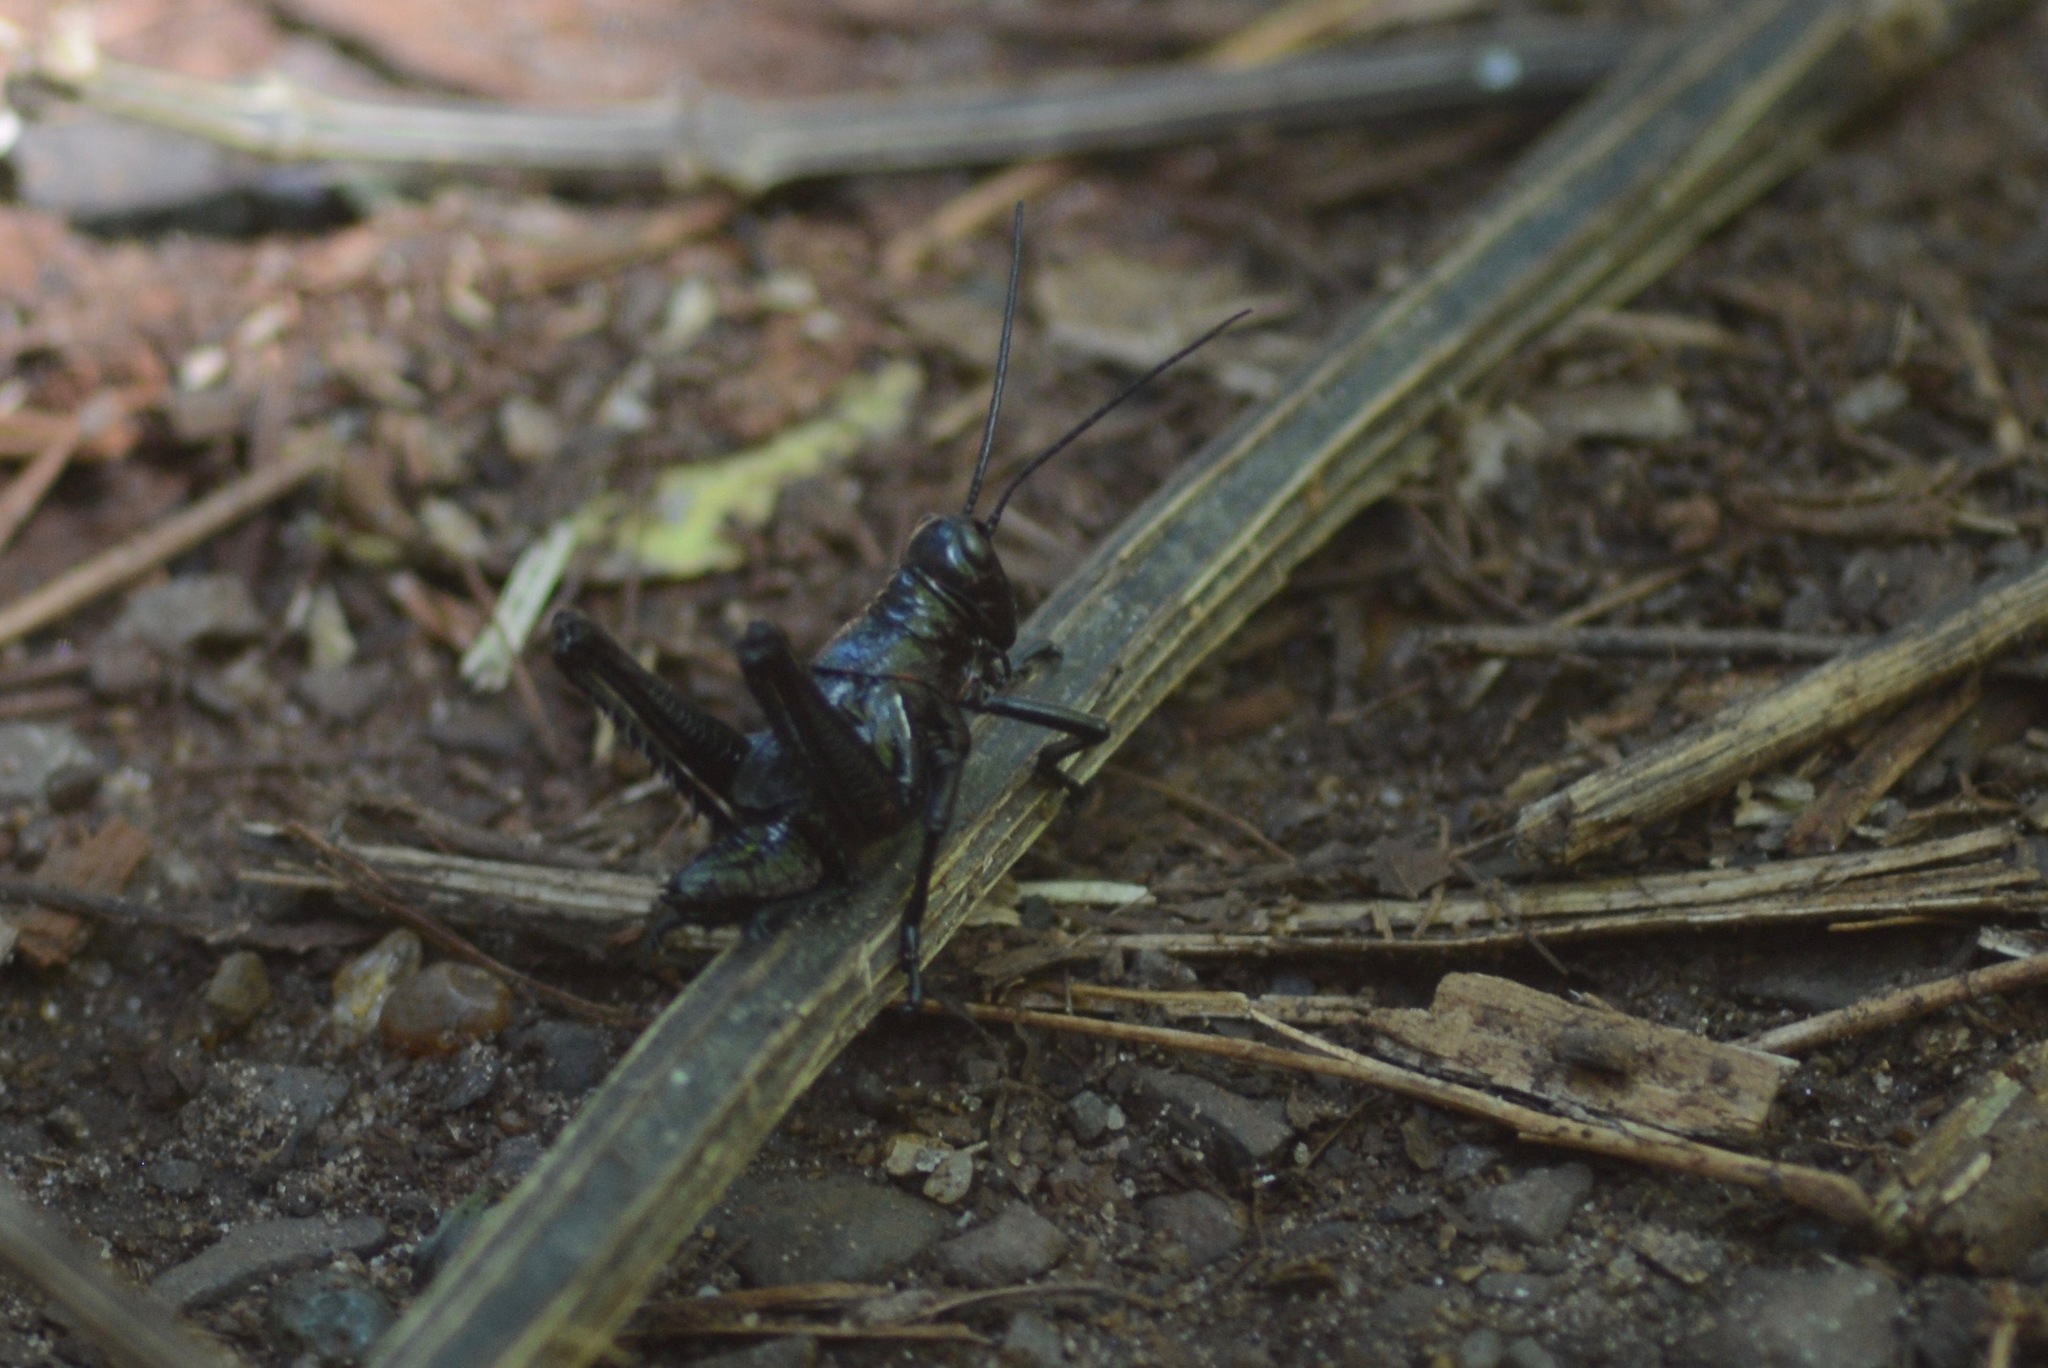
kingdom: Animalia
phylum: Arthropoda
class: Insecta
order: Orthoptera
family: Romaleidae
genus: Chromacris
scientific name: Chromacris speciosa
